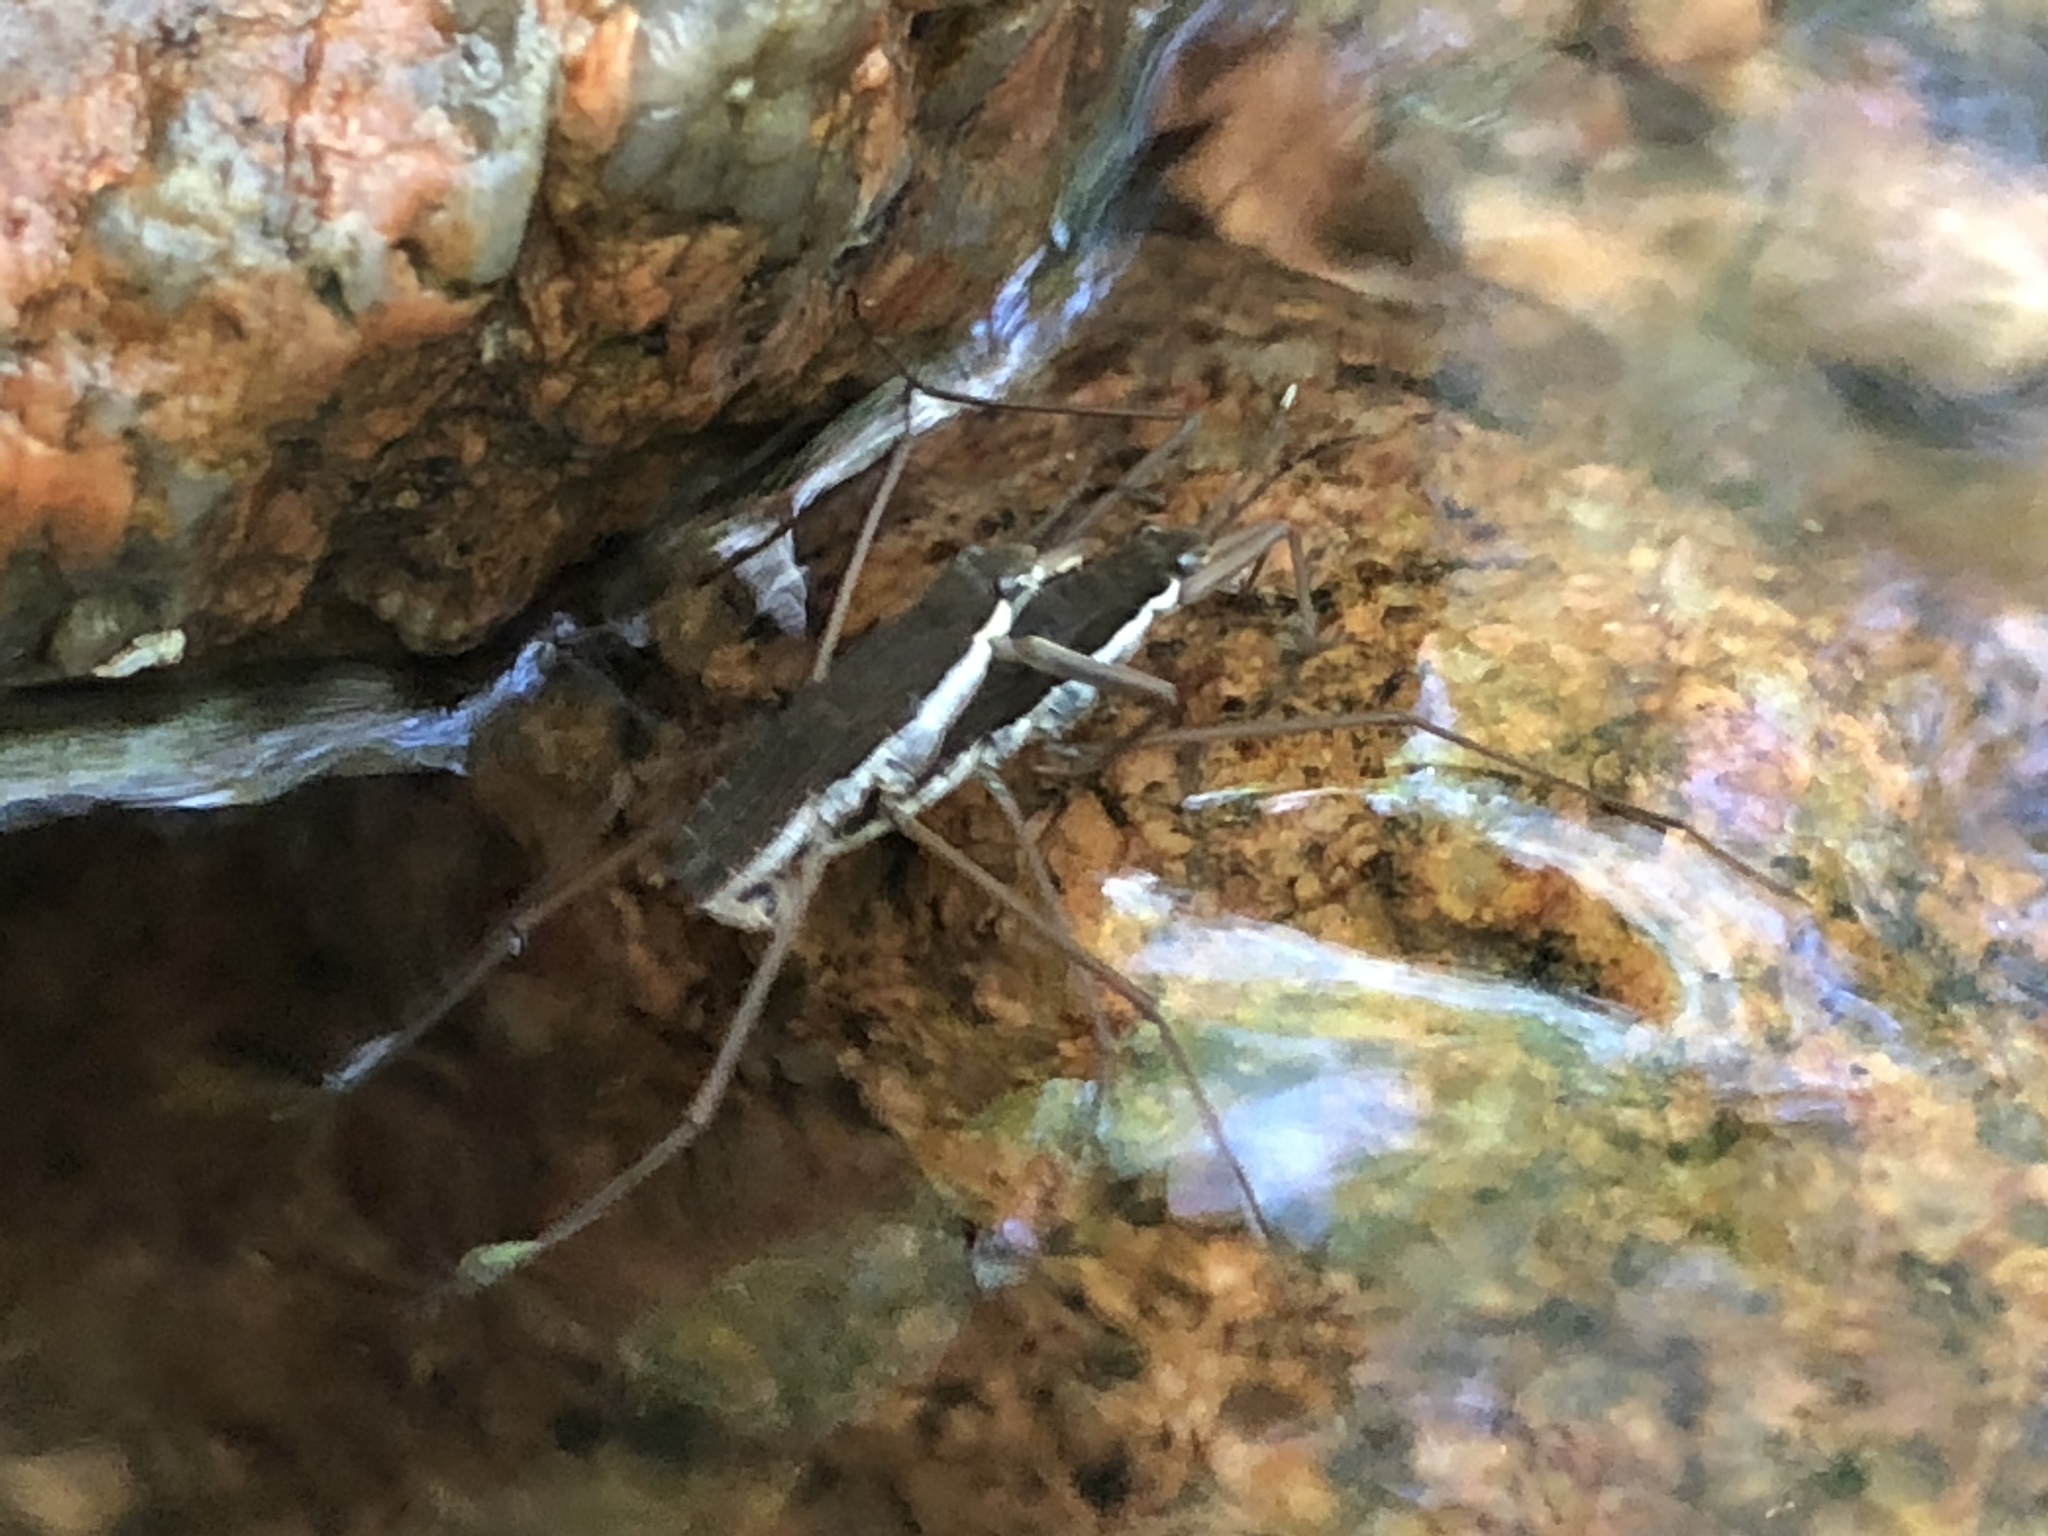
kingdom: Animalia
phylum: Arthropoda
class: Insecta
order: Hemiptera
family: Gerridae
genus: Aquarius
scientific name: Aquarius remigis
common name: Common water strider
